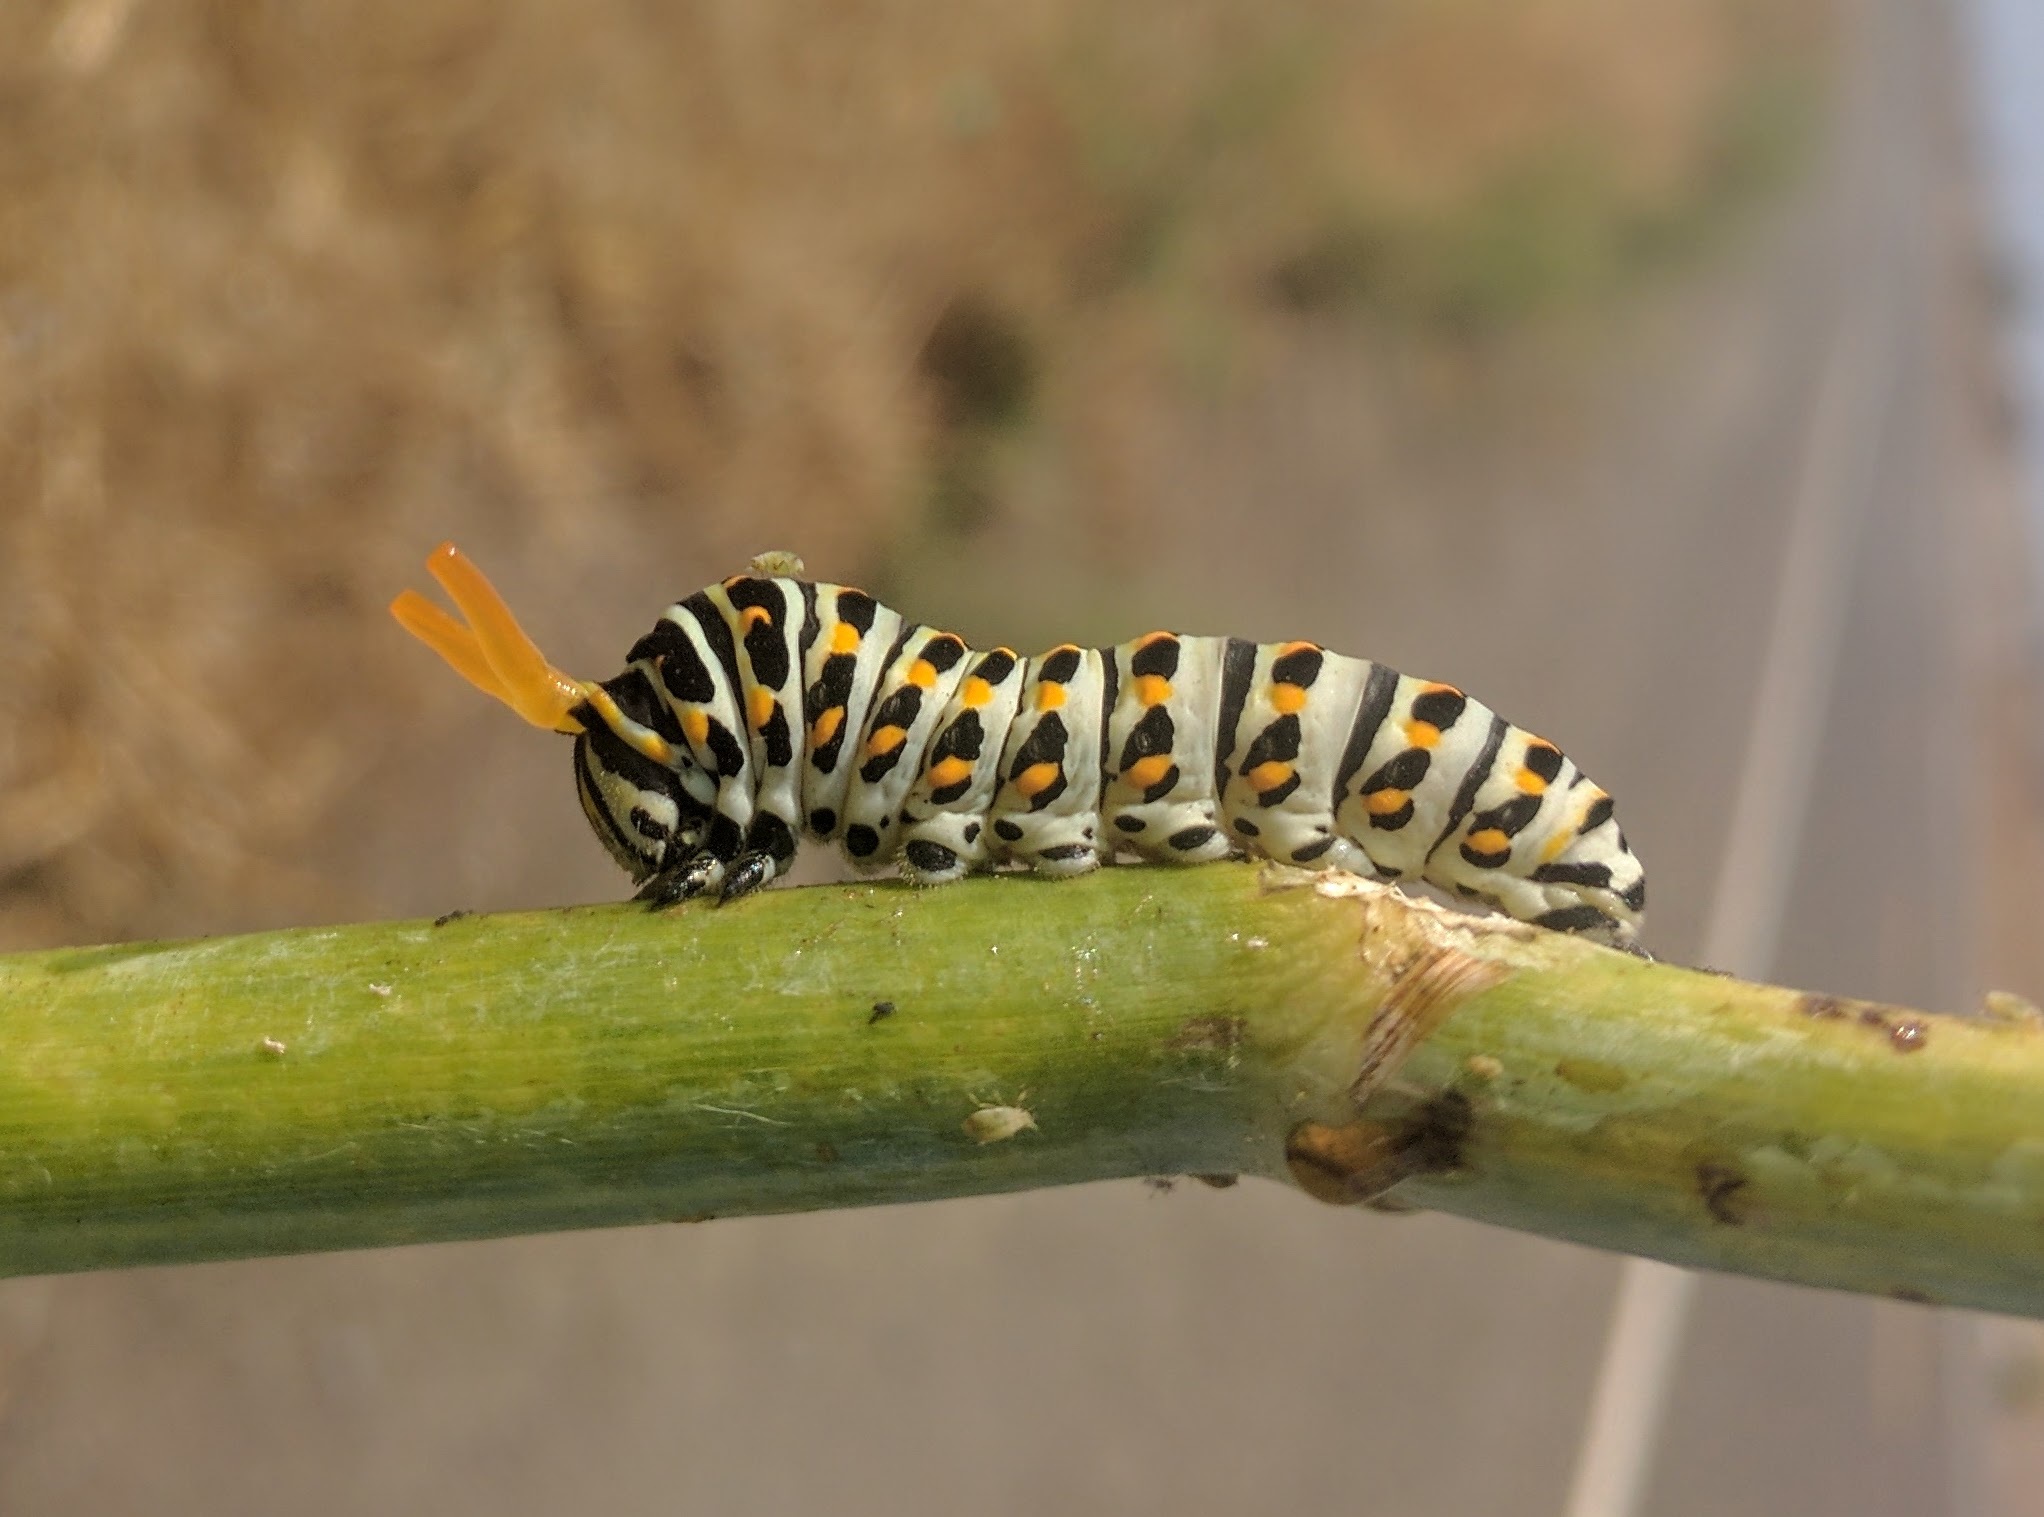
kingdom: Animalia
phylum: Arthropoda
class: Insecta
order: Lepidoptera
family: Papilionidae
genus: Papilio
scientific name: Papilio zelicaon
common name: Anise swallowtail
